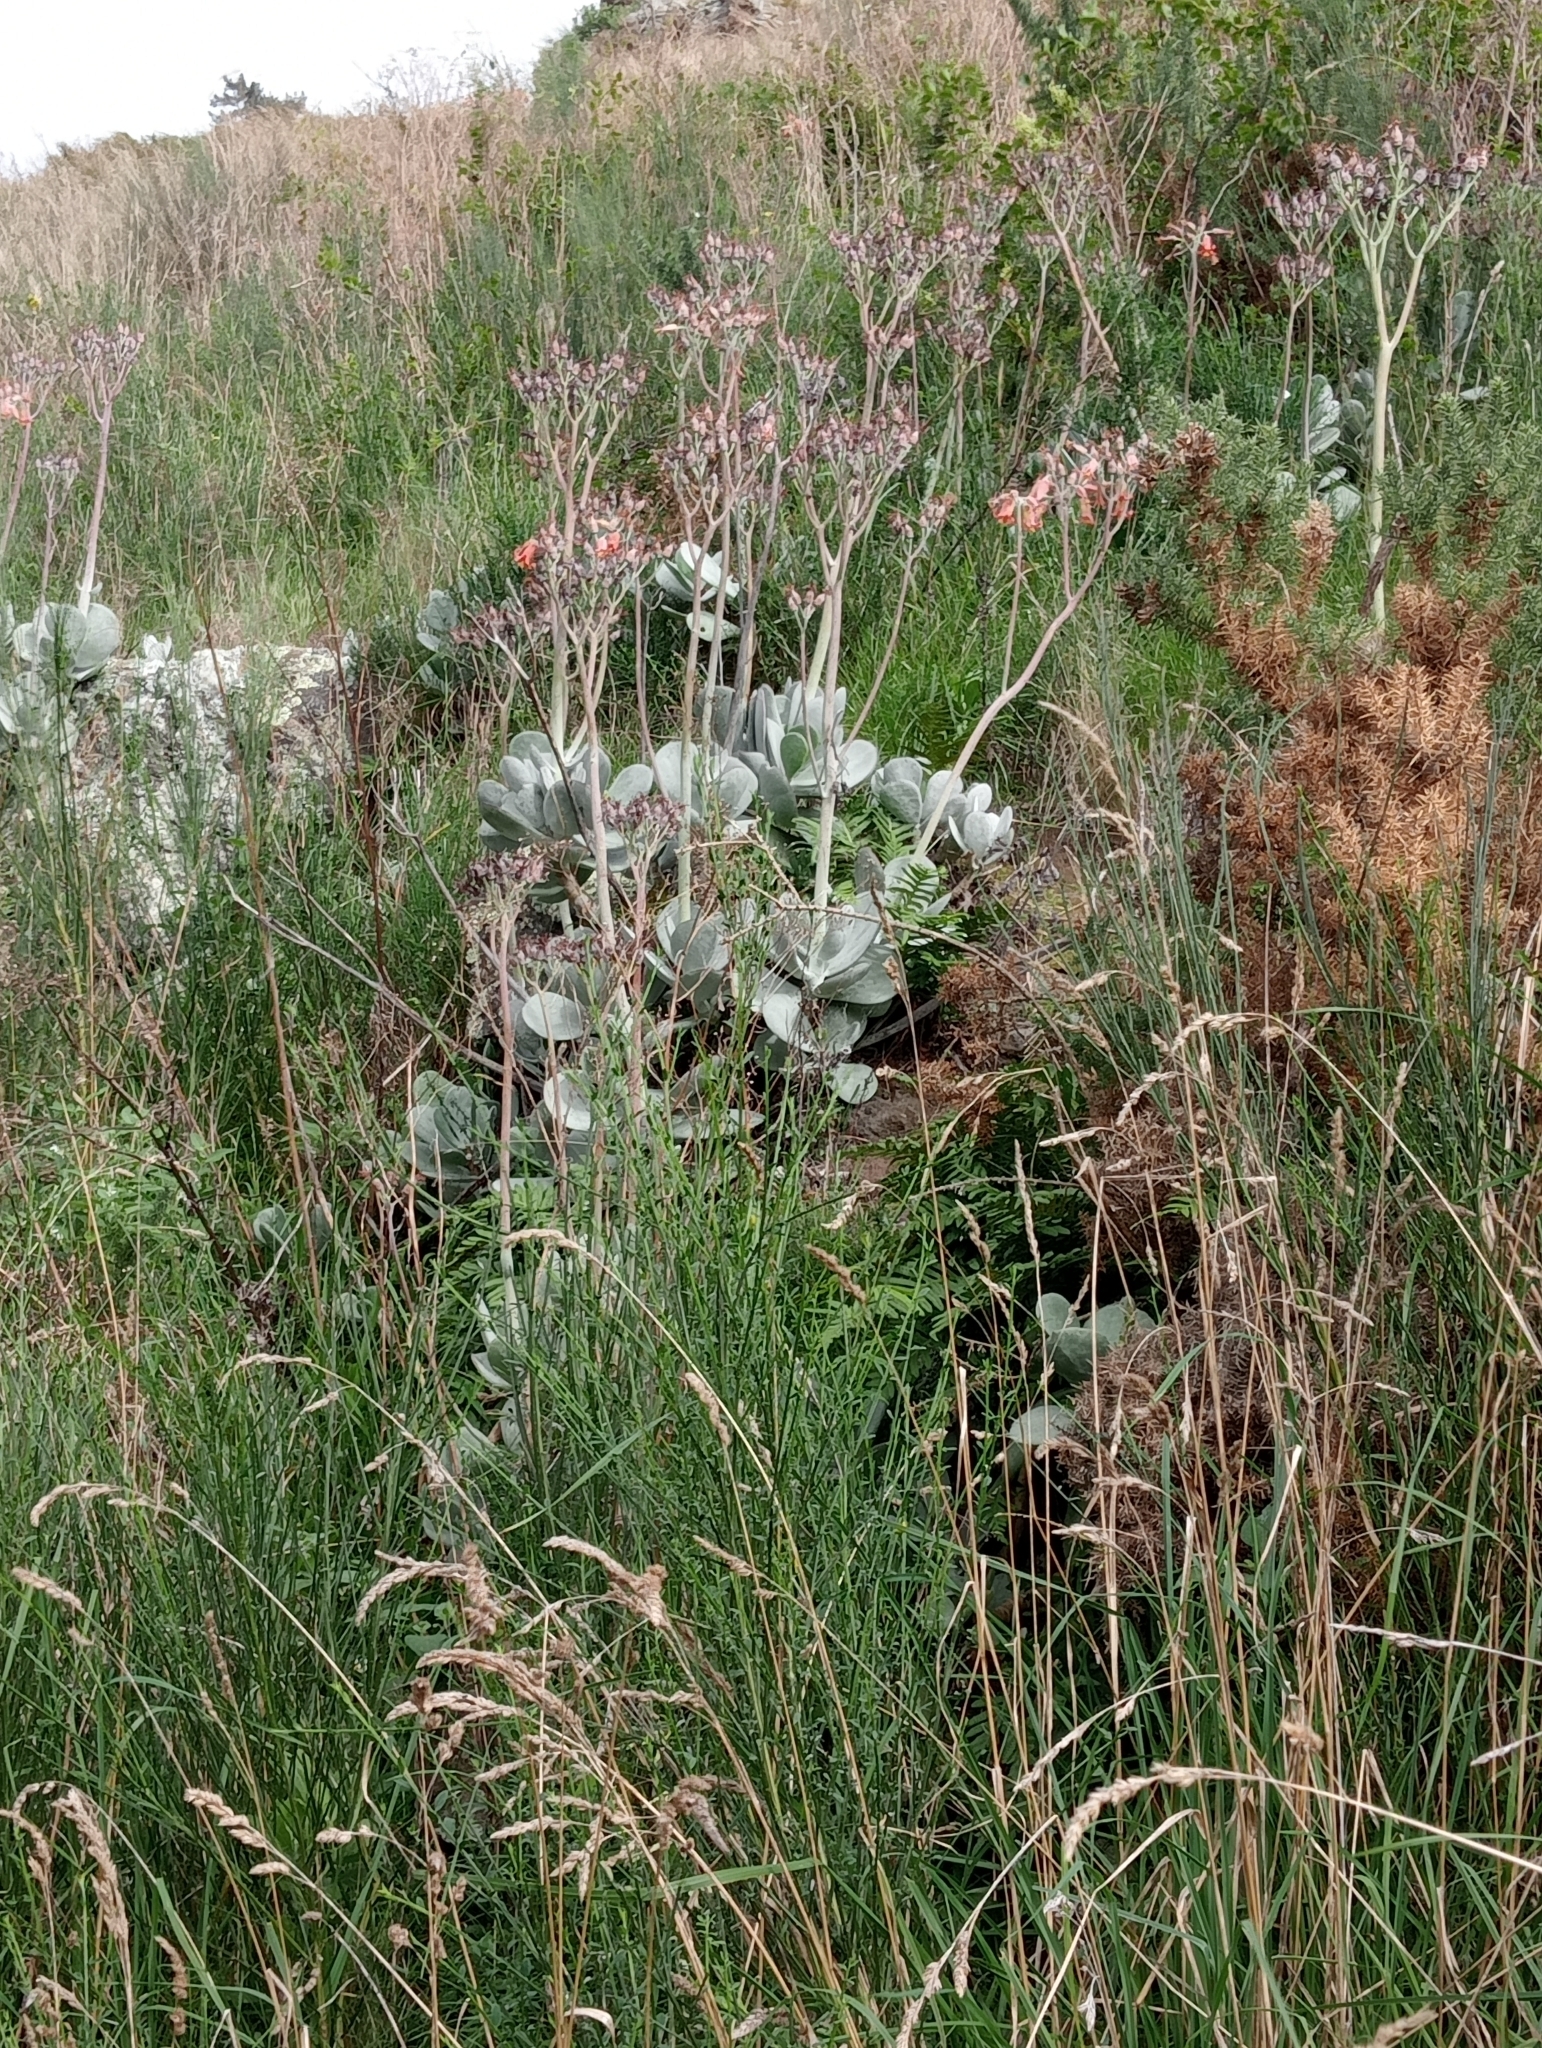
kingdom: Plantae
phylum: Tracheophyta
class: Magnoliopsida
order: Saxifragales
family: Crassulaceae
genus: Cotyledon
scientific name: Cotyledon orbiculata
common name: Pig's ear
